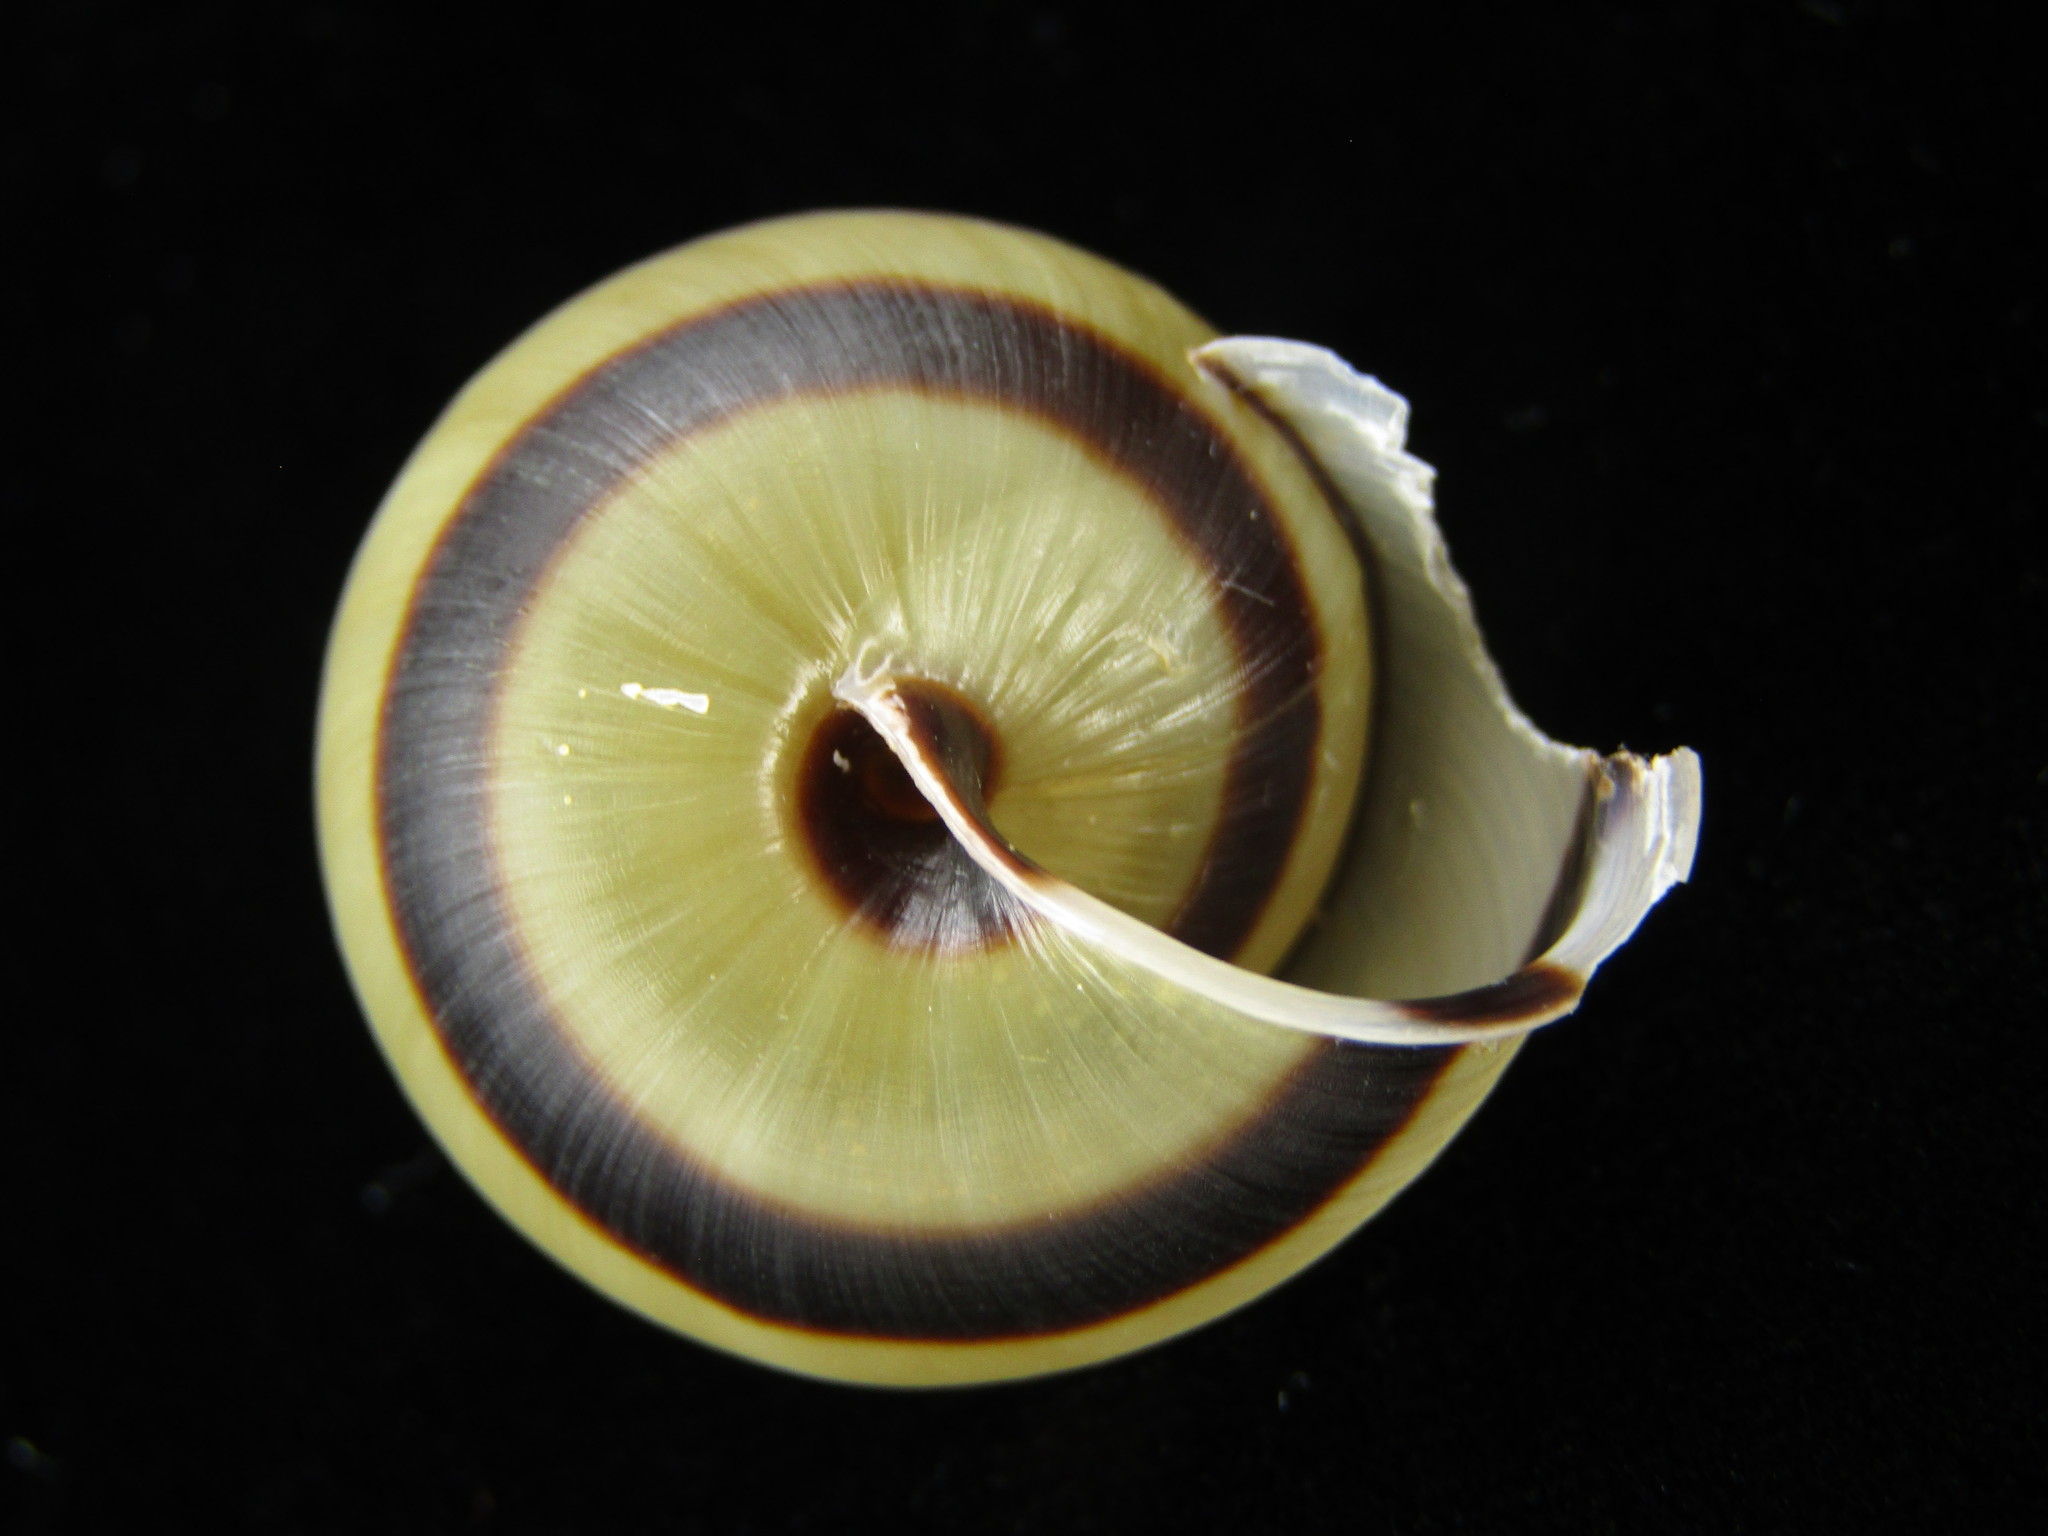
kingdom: Animalia
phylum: Mollusca
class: Gastropoda
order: Stylommatophora
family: Camaenidae
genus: Euhadra
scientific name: Euhadra callizona
